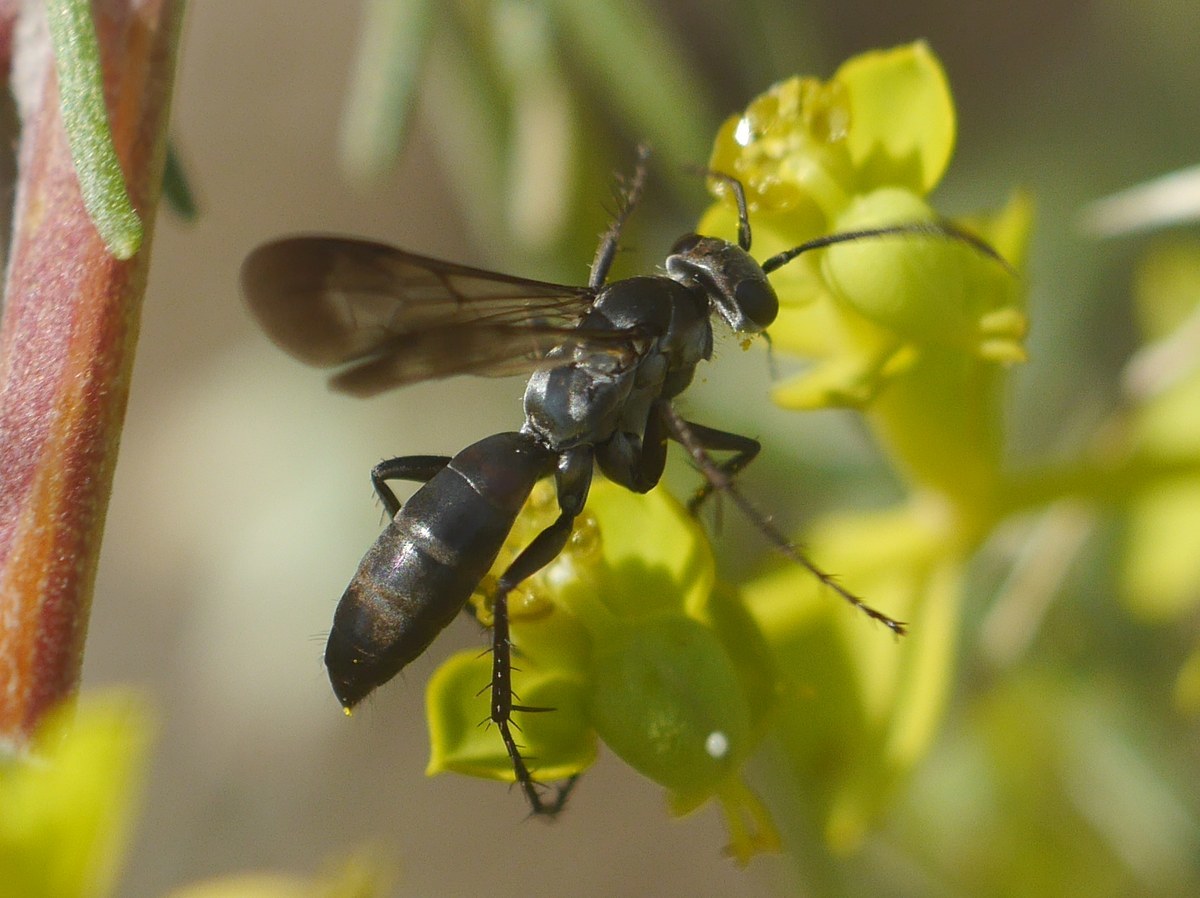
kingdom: Animalia
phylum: Arthropoda
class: Insecta
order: Hymenoptera
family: Pompilidae
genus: Telostegus
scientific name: Telostegus inermis
